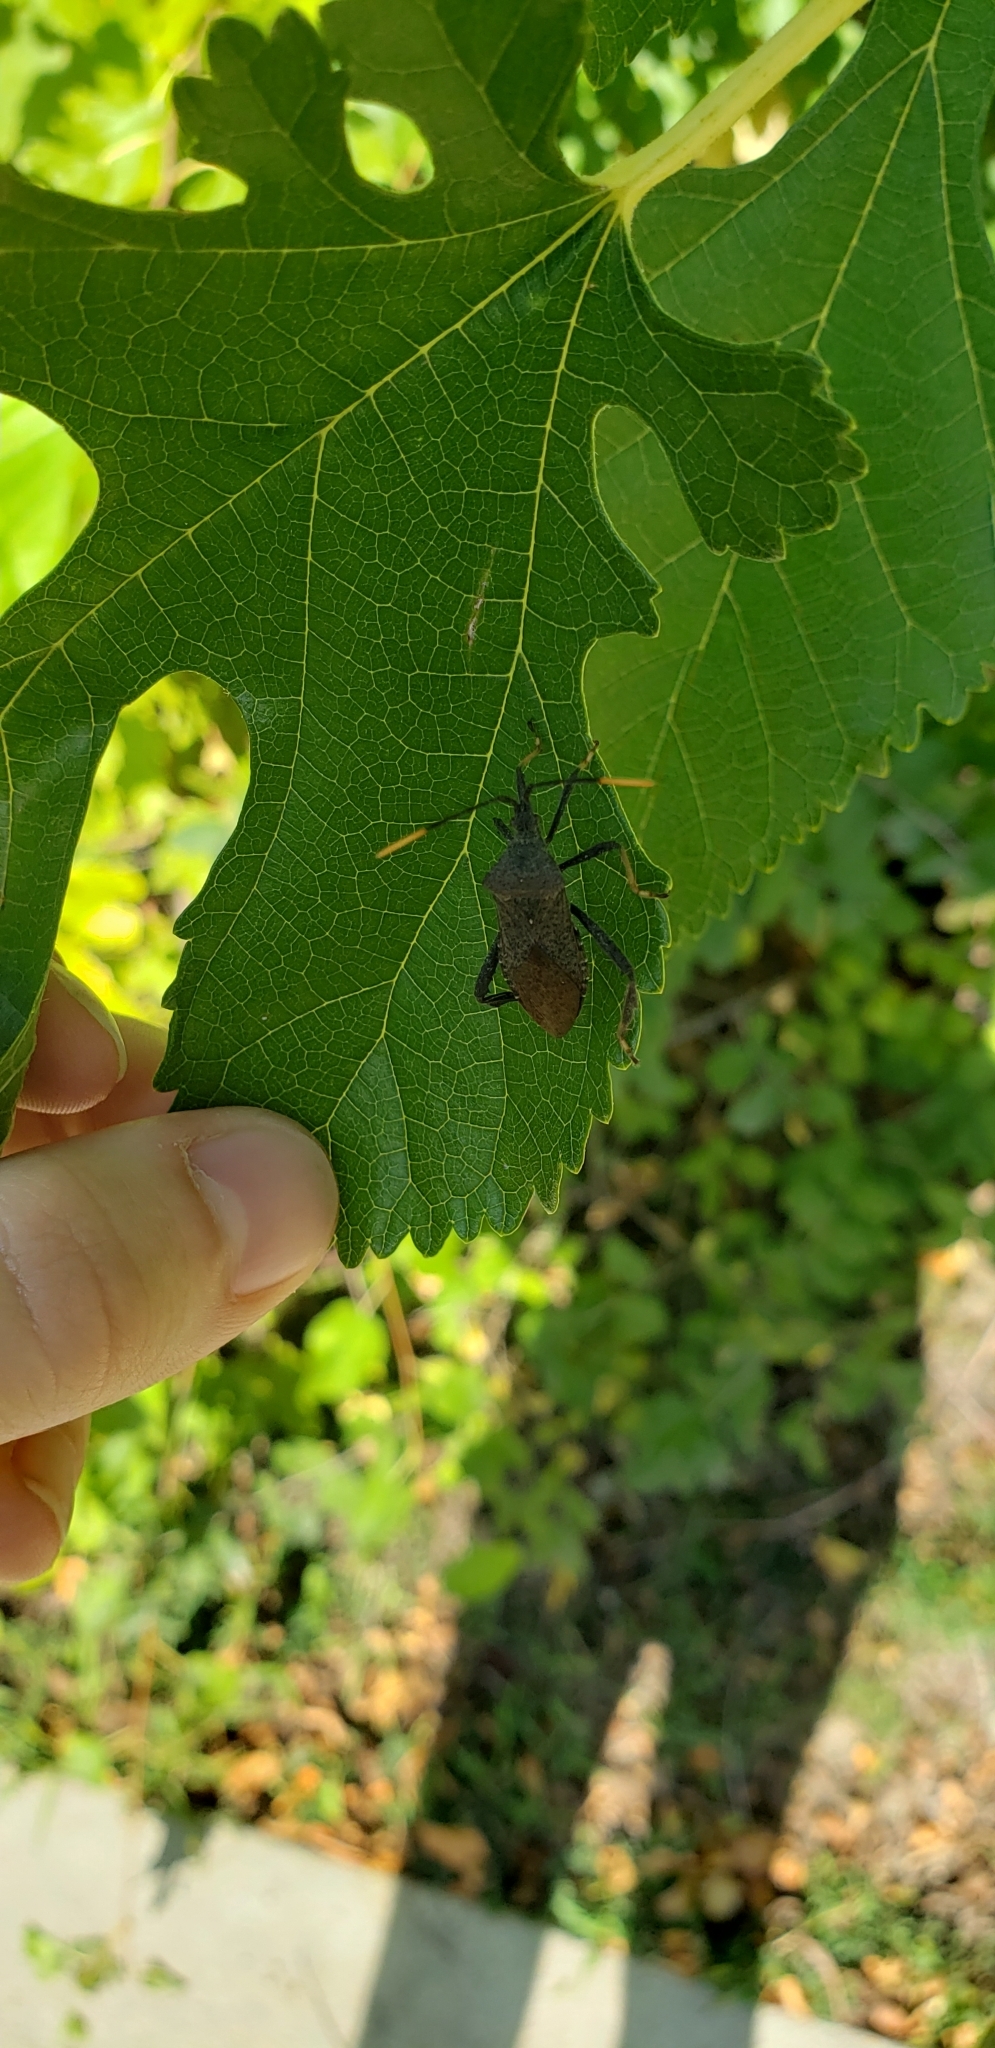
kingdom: Animalia
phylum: Arthropoda
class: Insecta
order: Hemiptera
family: Coreidae
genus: Acanthocephala
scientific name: Acanthocephala terminalis
